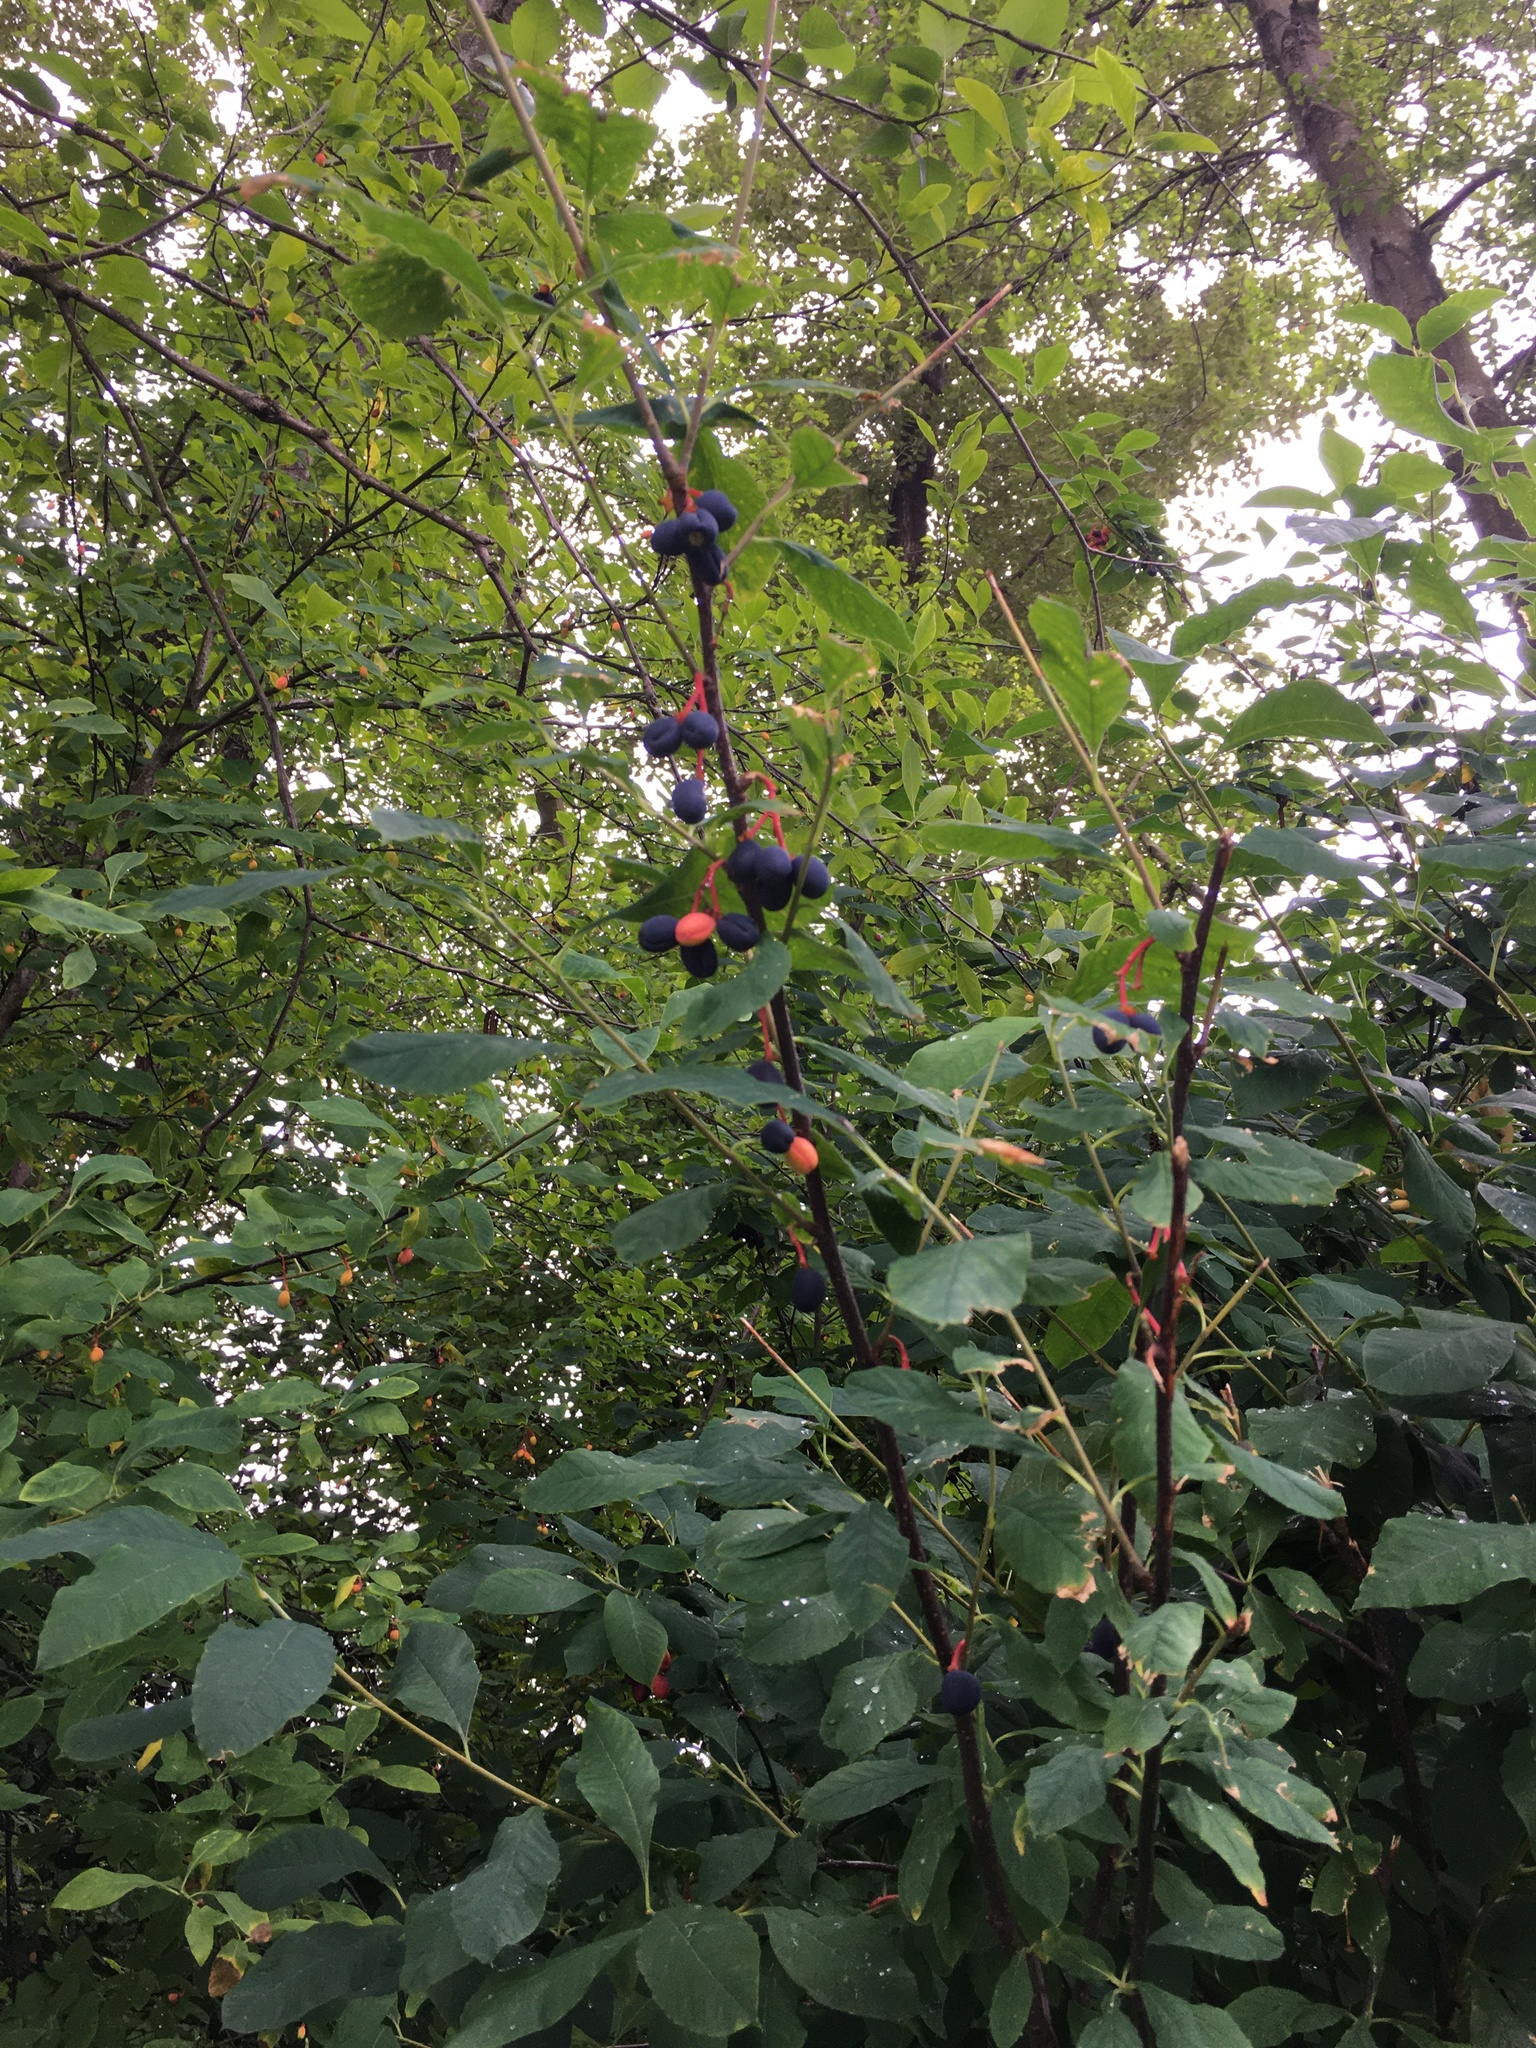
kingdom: Plantae
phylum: Tracheophyta
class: Magnoliopsida
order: Rosales
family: Rosaceae
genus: Oemleria
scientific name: Oemleria cerasiformis
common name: Osoberry
